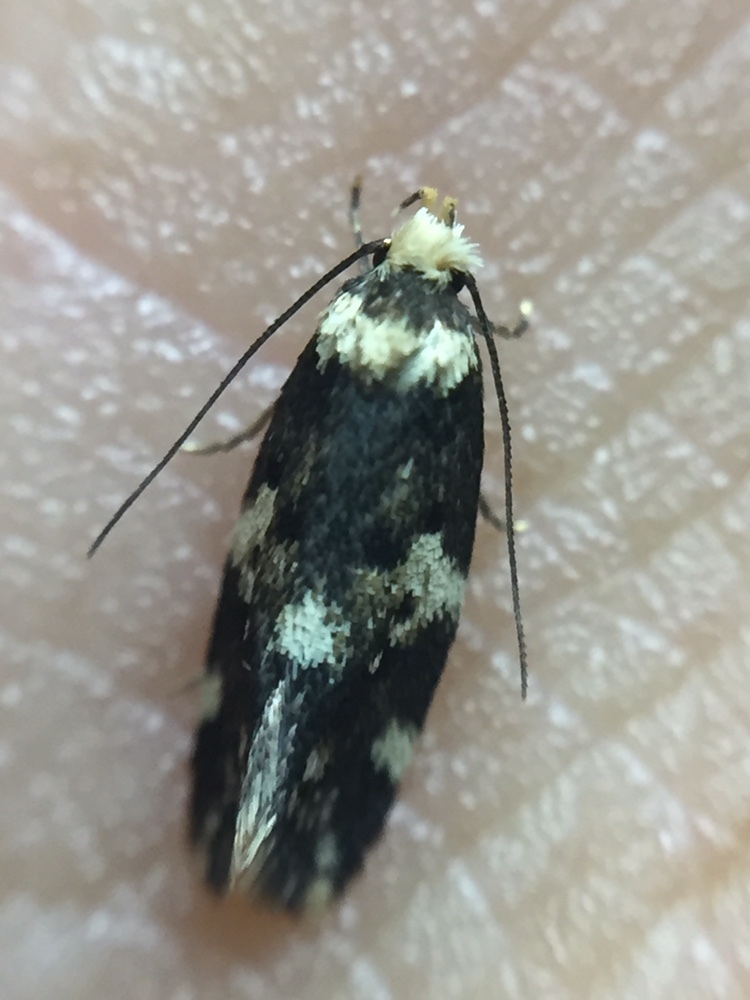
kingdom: Animalia
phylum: Arthropoda
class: Insecta
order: Lepidoptera
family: Oecophoridae
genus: Sphyrelata
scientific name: Sphyrelata amotella
